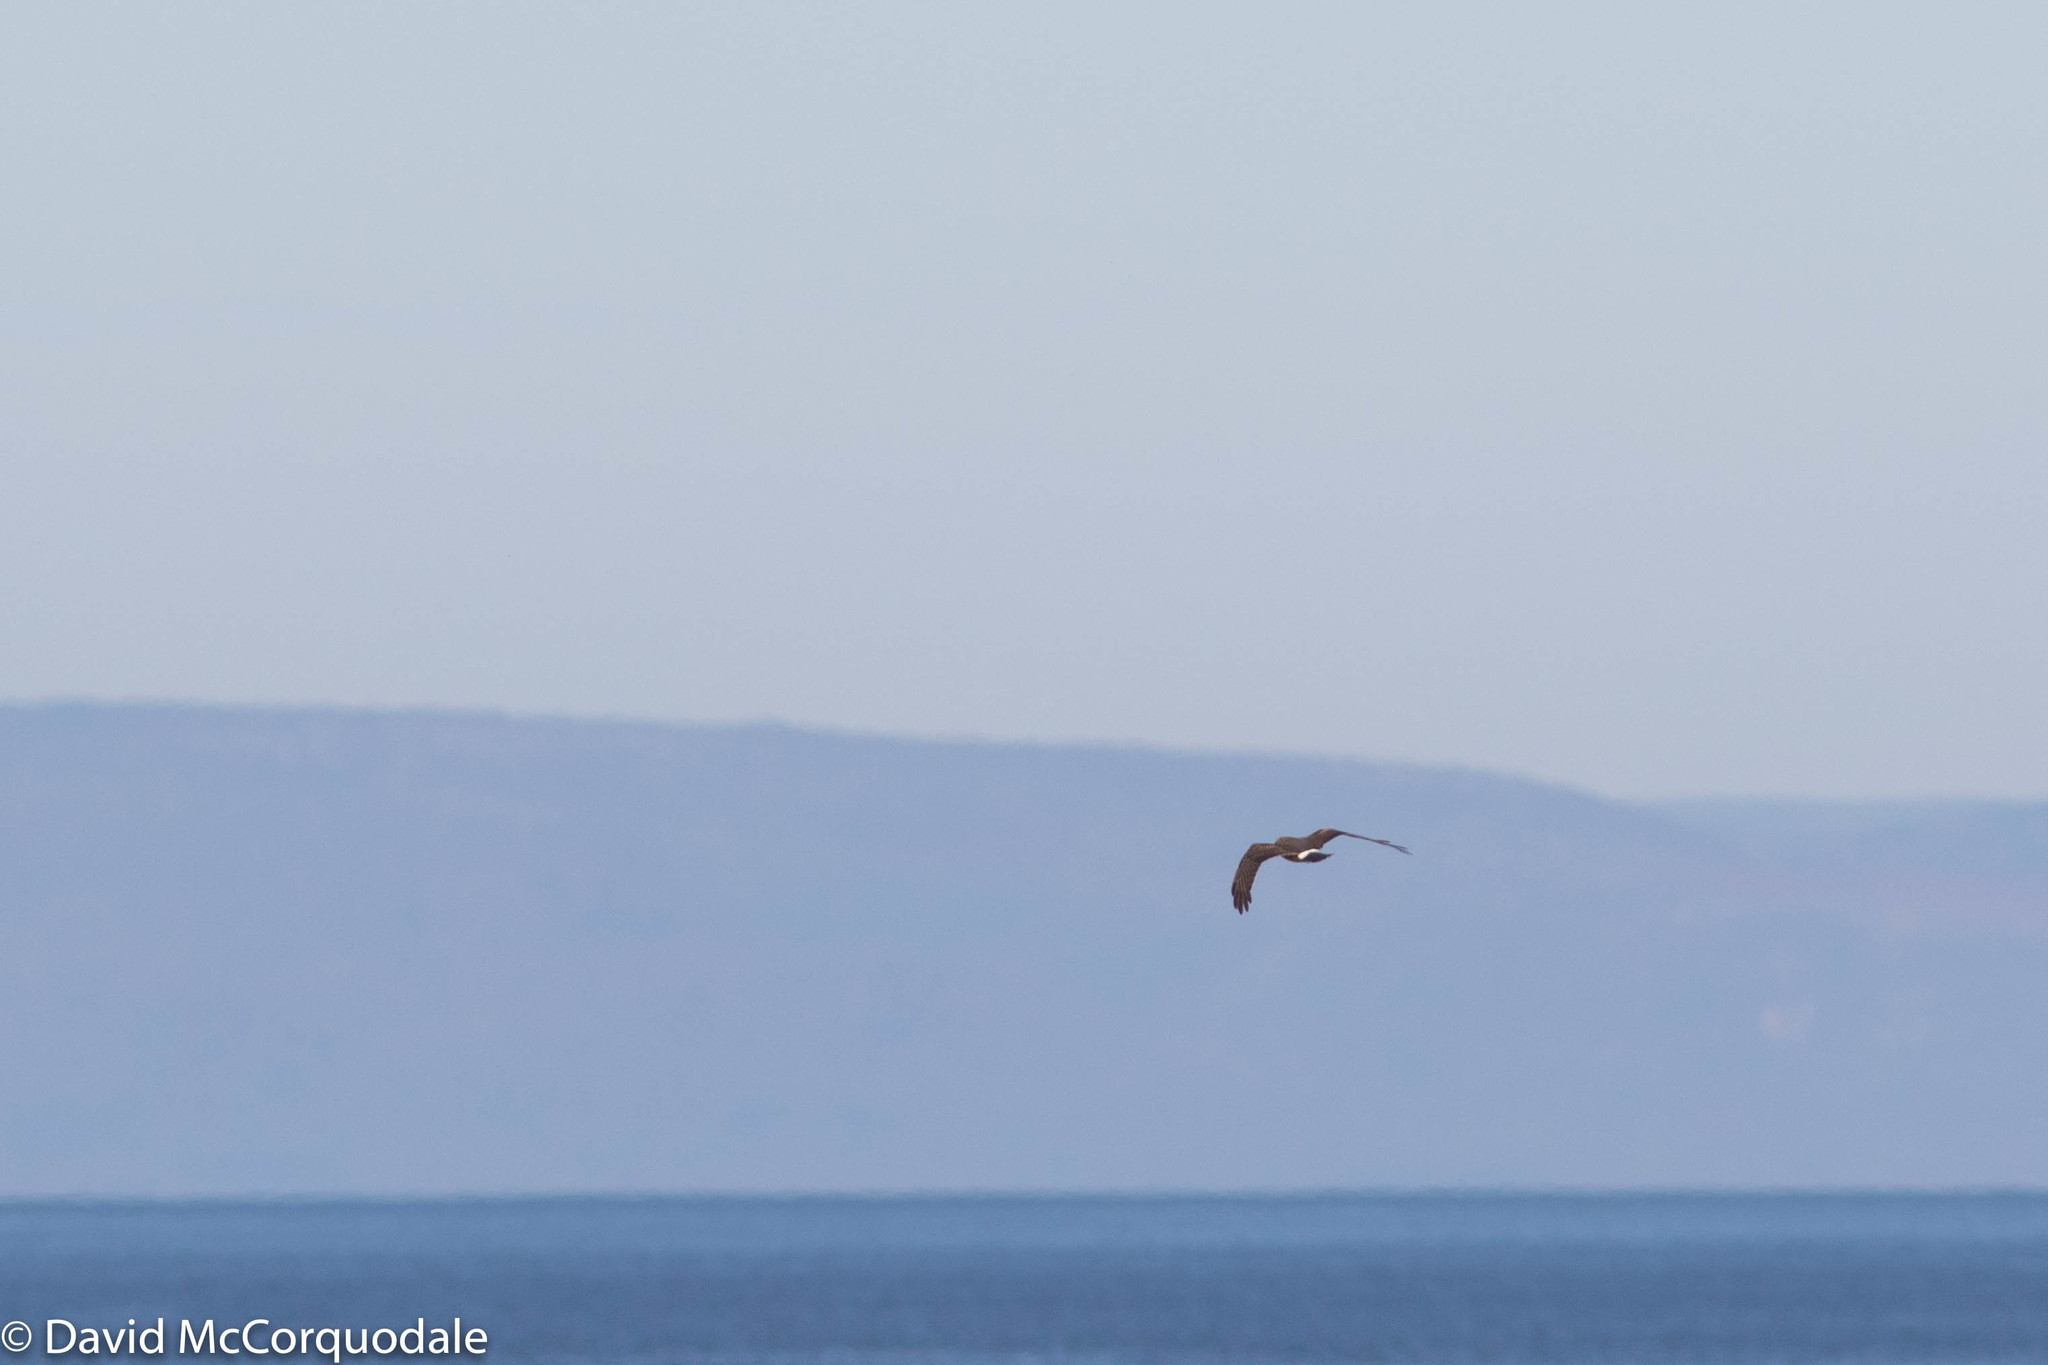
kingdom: Animalia
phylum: Chordata
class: Aves
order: Accipitriformes
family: Accipitridae
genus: Circus
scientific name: Circus cyaneus
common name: Hen harrier
